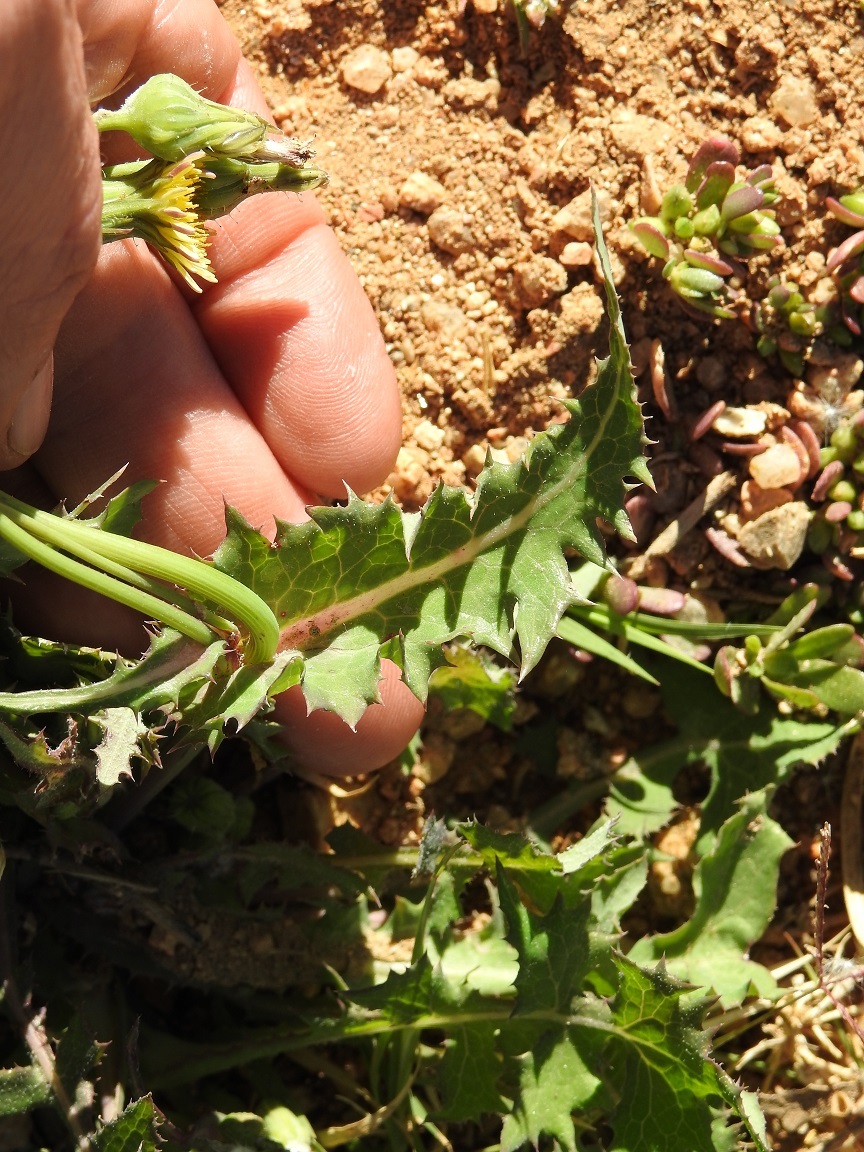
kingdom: Plantae
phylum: Tracheophyta
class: Magnoliopsida
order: Asterales
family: Asteraceae
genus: Sonchus
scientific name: Sonchus oleraceus
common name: Common sowthistle
